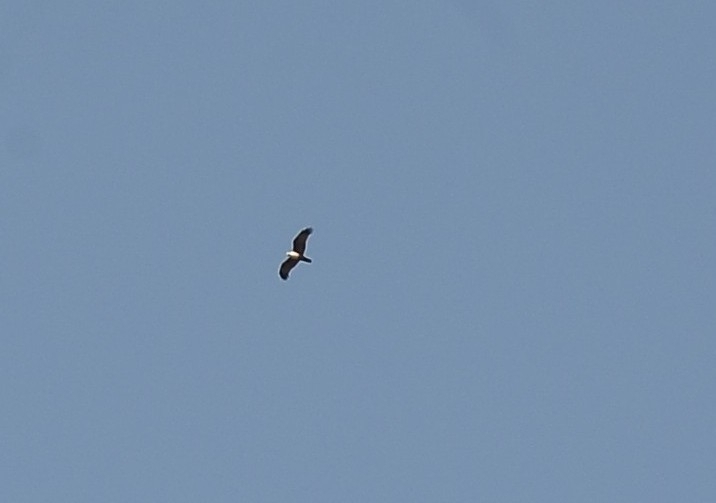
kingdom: Animalia
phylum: Chordata
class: Aves
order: Accipitriformes
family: Accipitridae
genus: Haliastur
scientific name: Haliastur indus
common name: Brahminy kite
